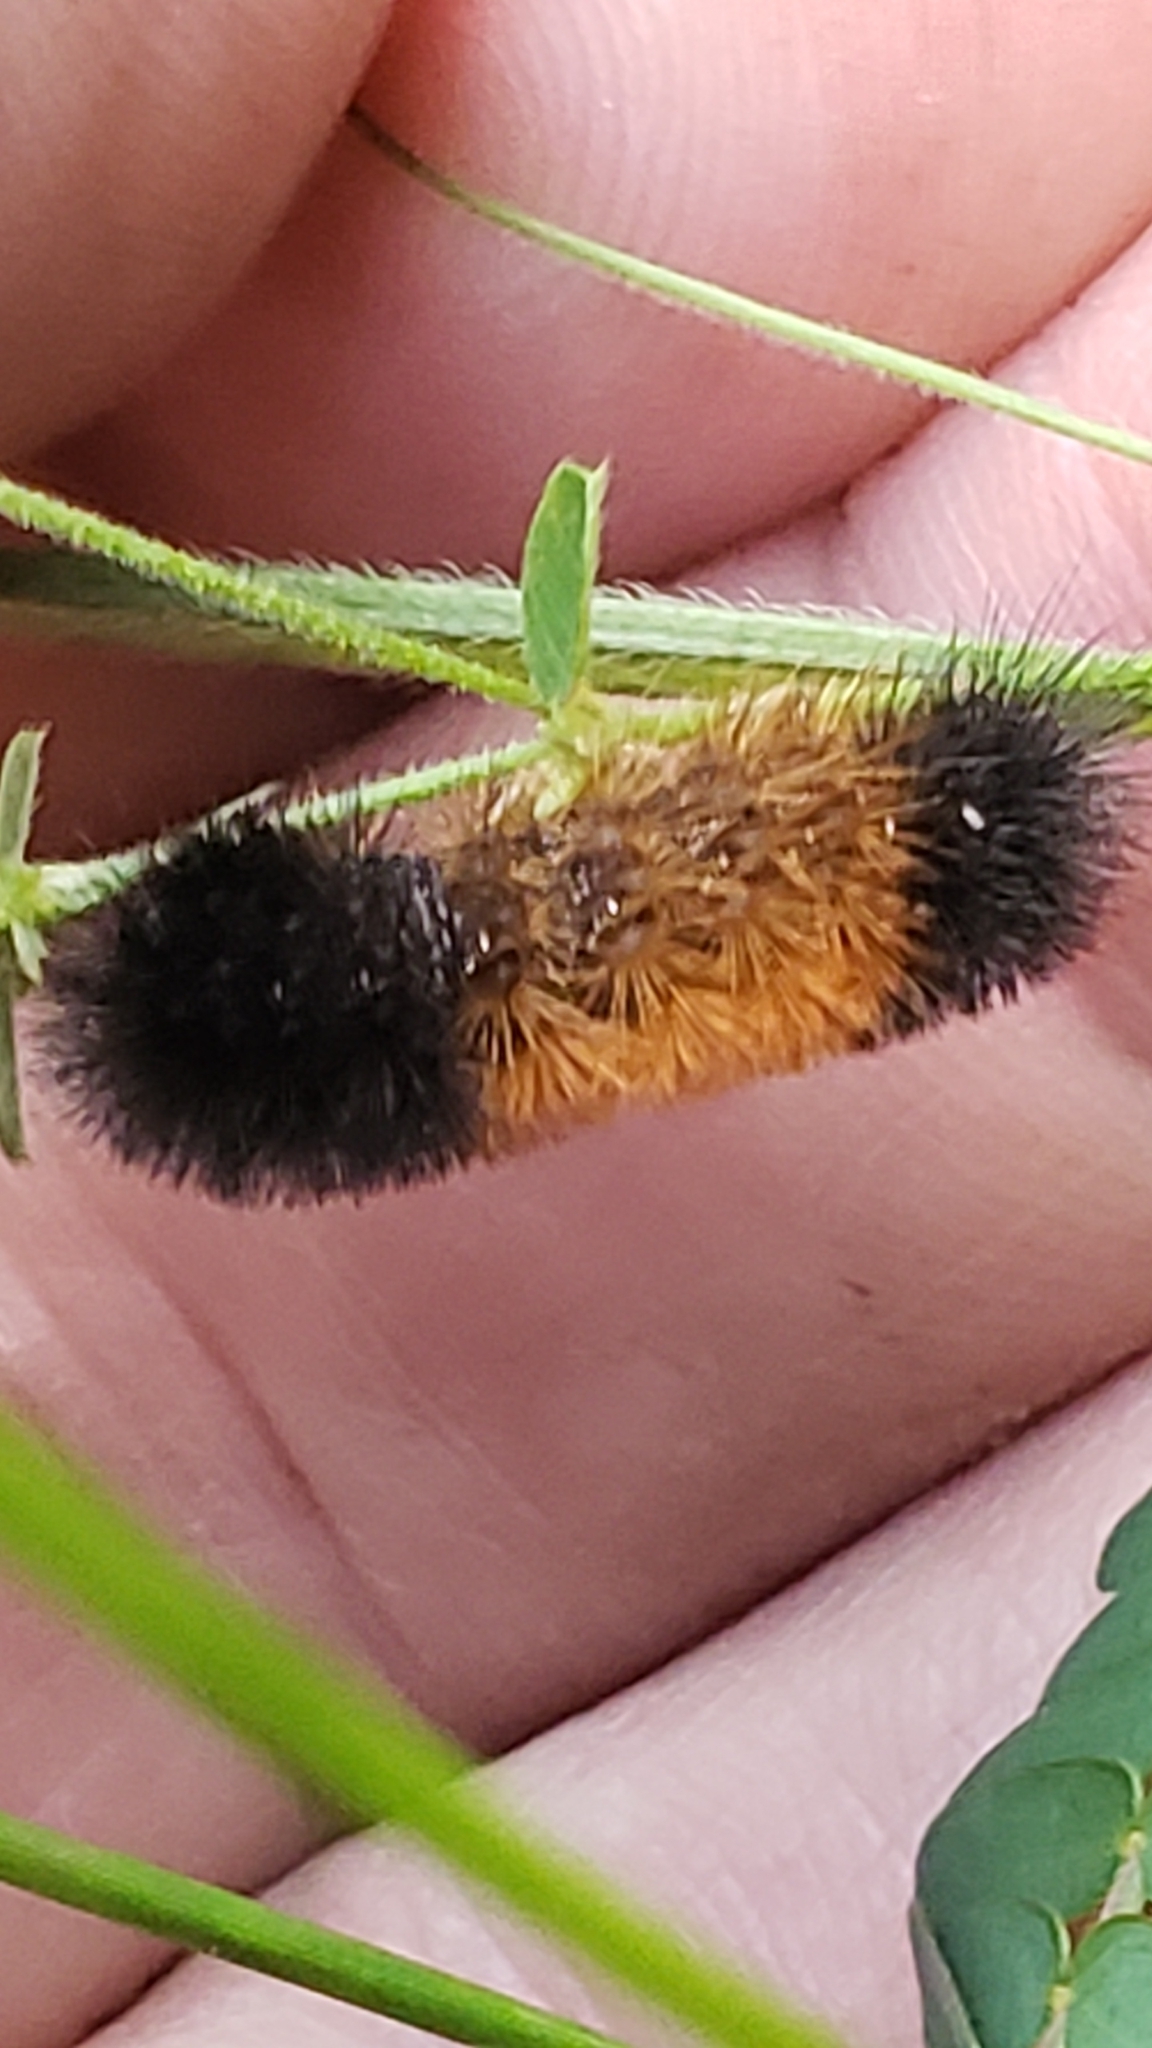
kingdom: Animalia
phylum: Arthropoda
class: Insecta
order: Lepidoptera
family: Erebidae
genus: Pyrrharctia
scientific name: Pyrrharctia isabella
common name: Isabella tiger moth
